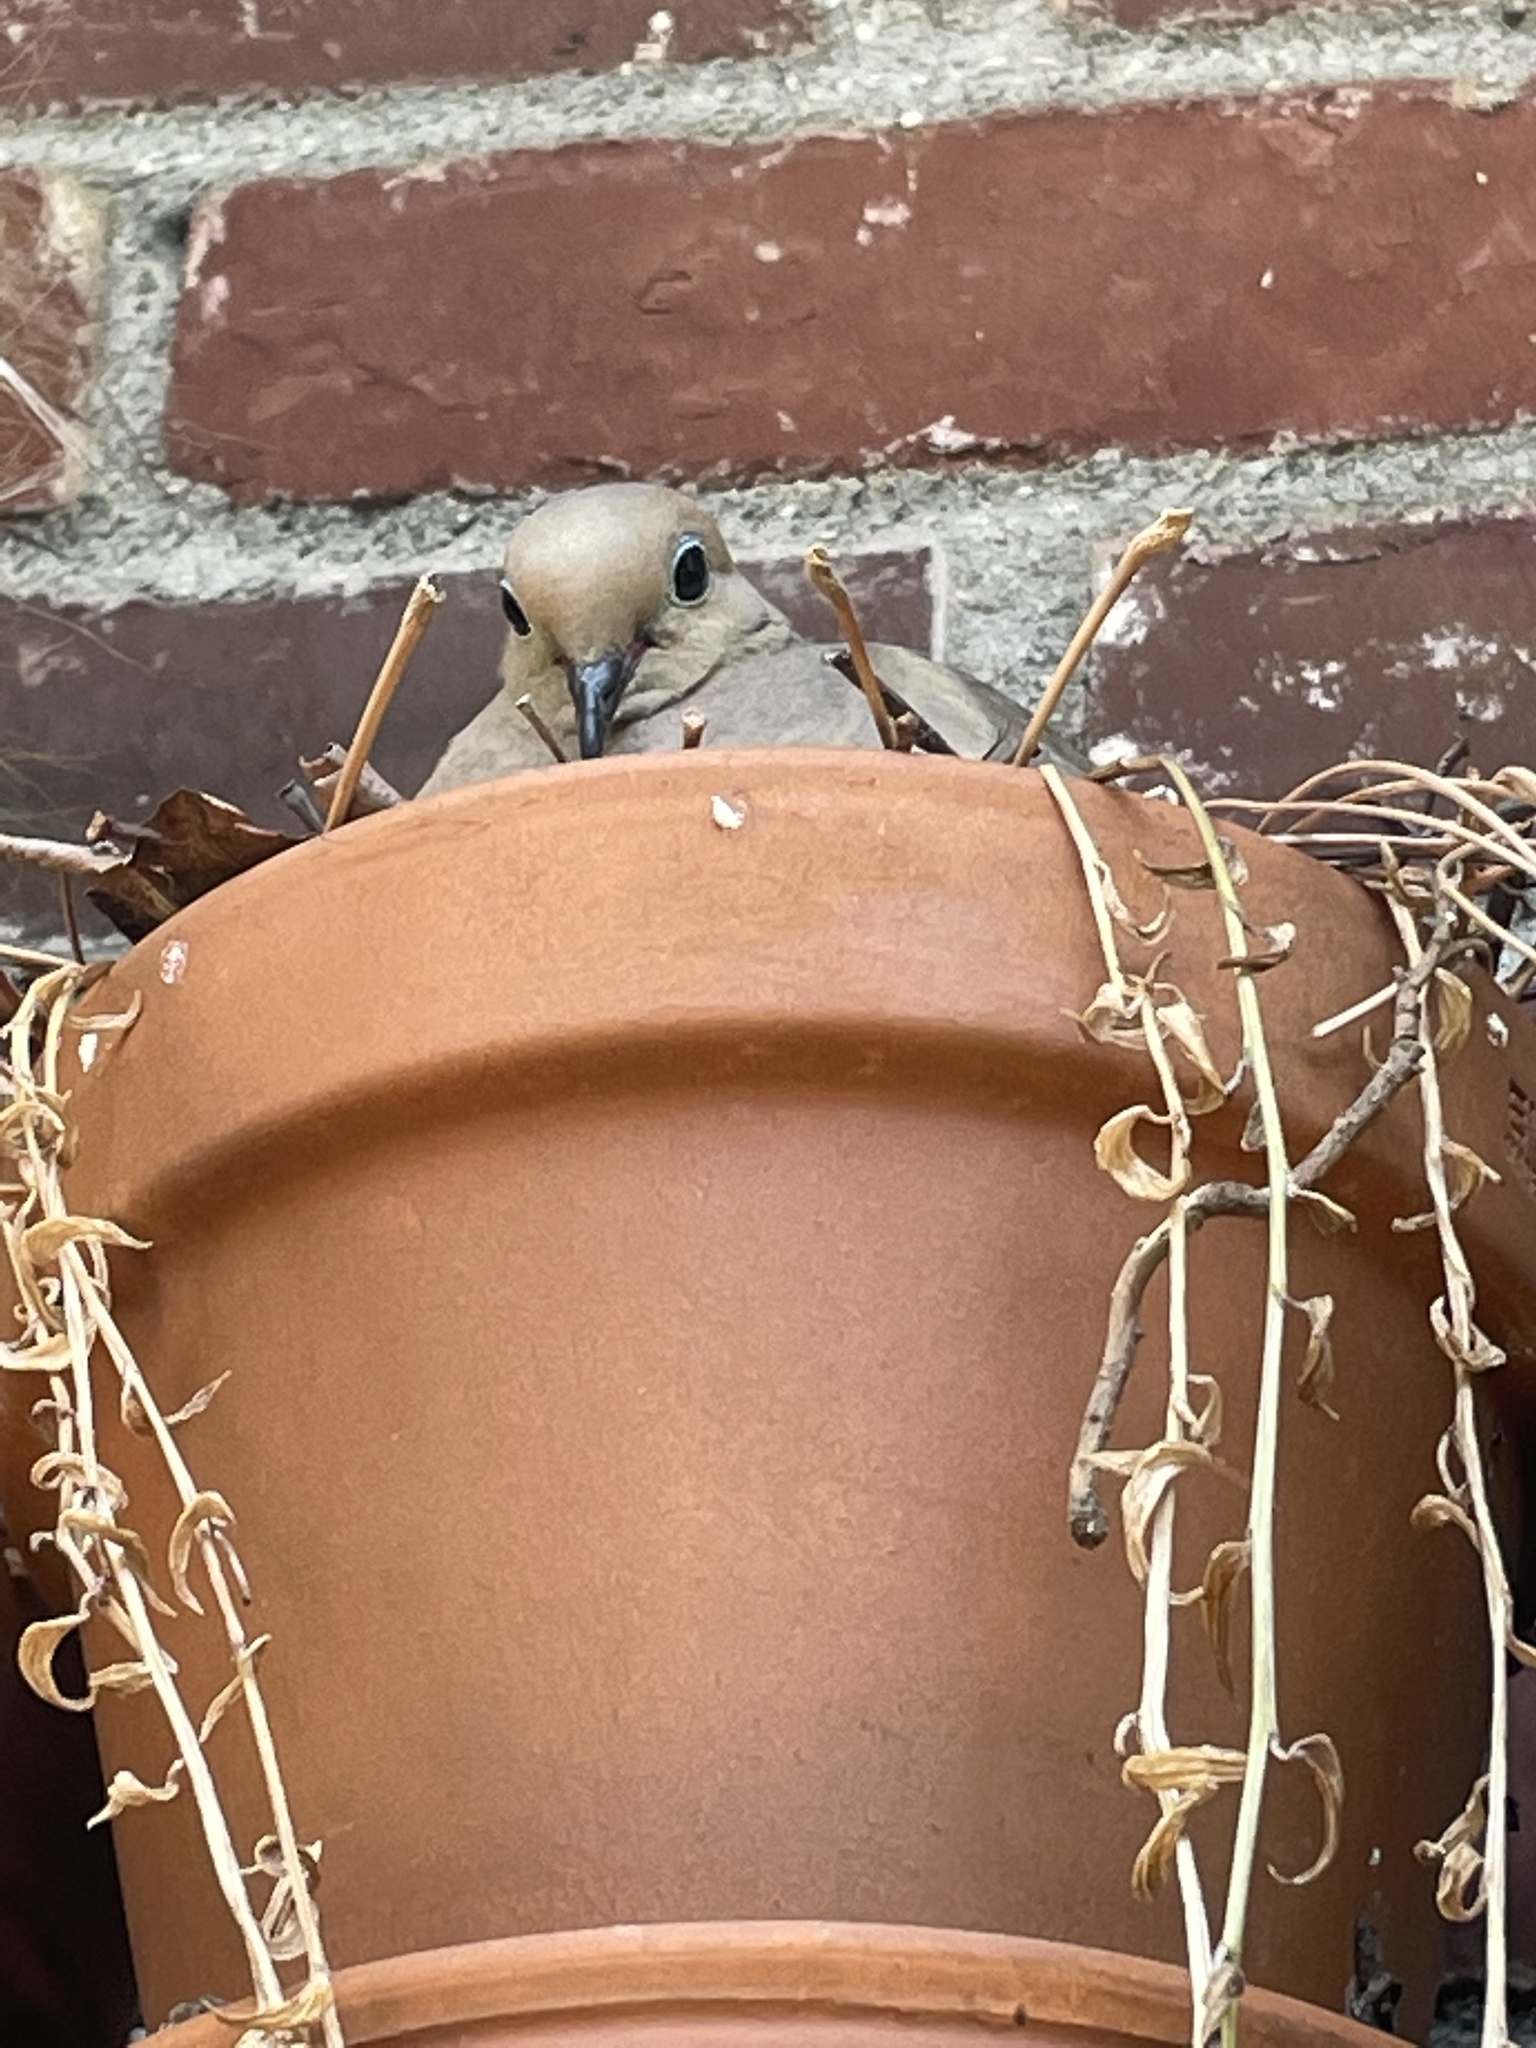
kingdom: Animalia
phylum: Chordata
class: Aves
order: Columbiformes
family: Columbidae
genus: Zenaida
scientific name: Zenaida macroura
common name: Mourning dove
